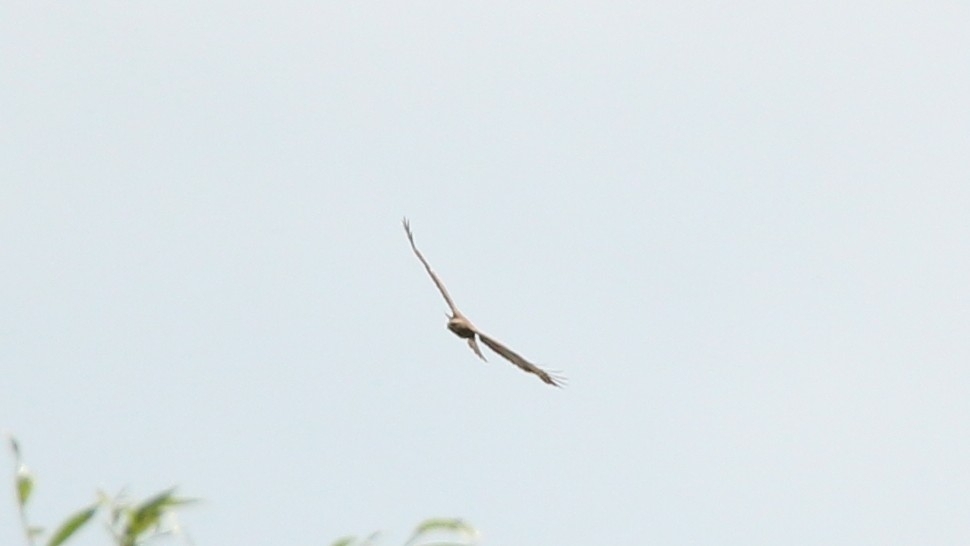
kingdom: Animalia
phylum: Chordata
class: Aves
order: Accipitriformes
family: Accipitridae
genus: Buteo
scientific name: Buteo buteo
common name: Common buzzard
